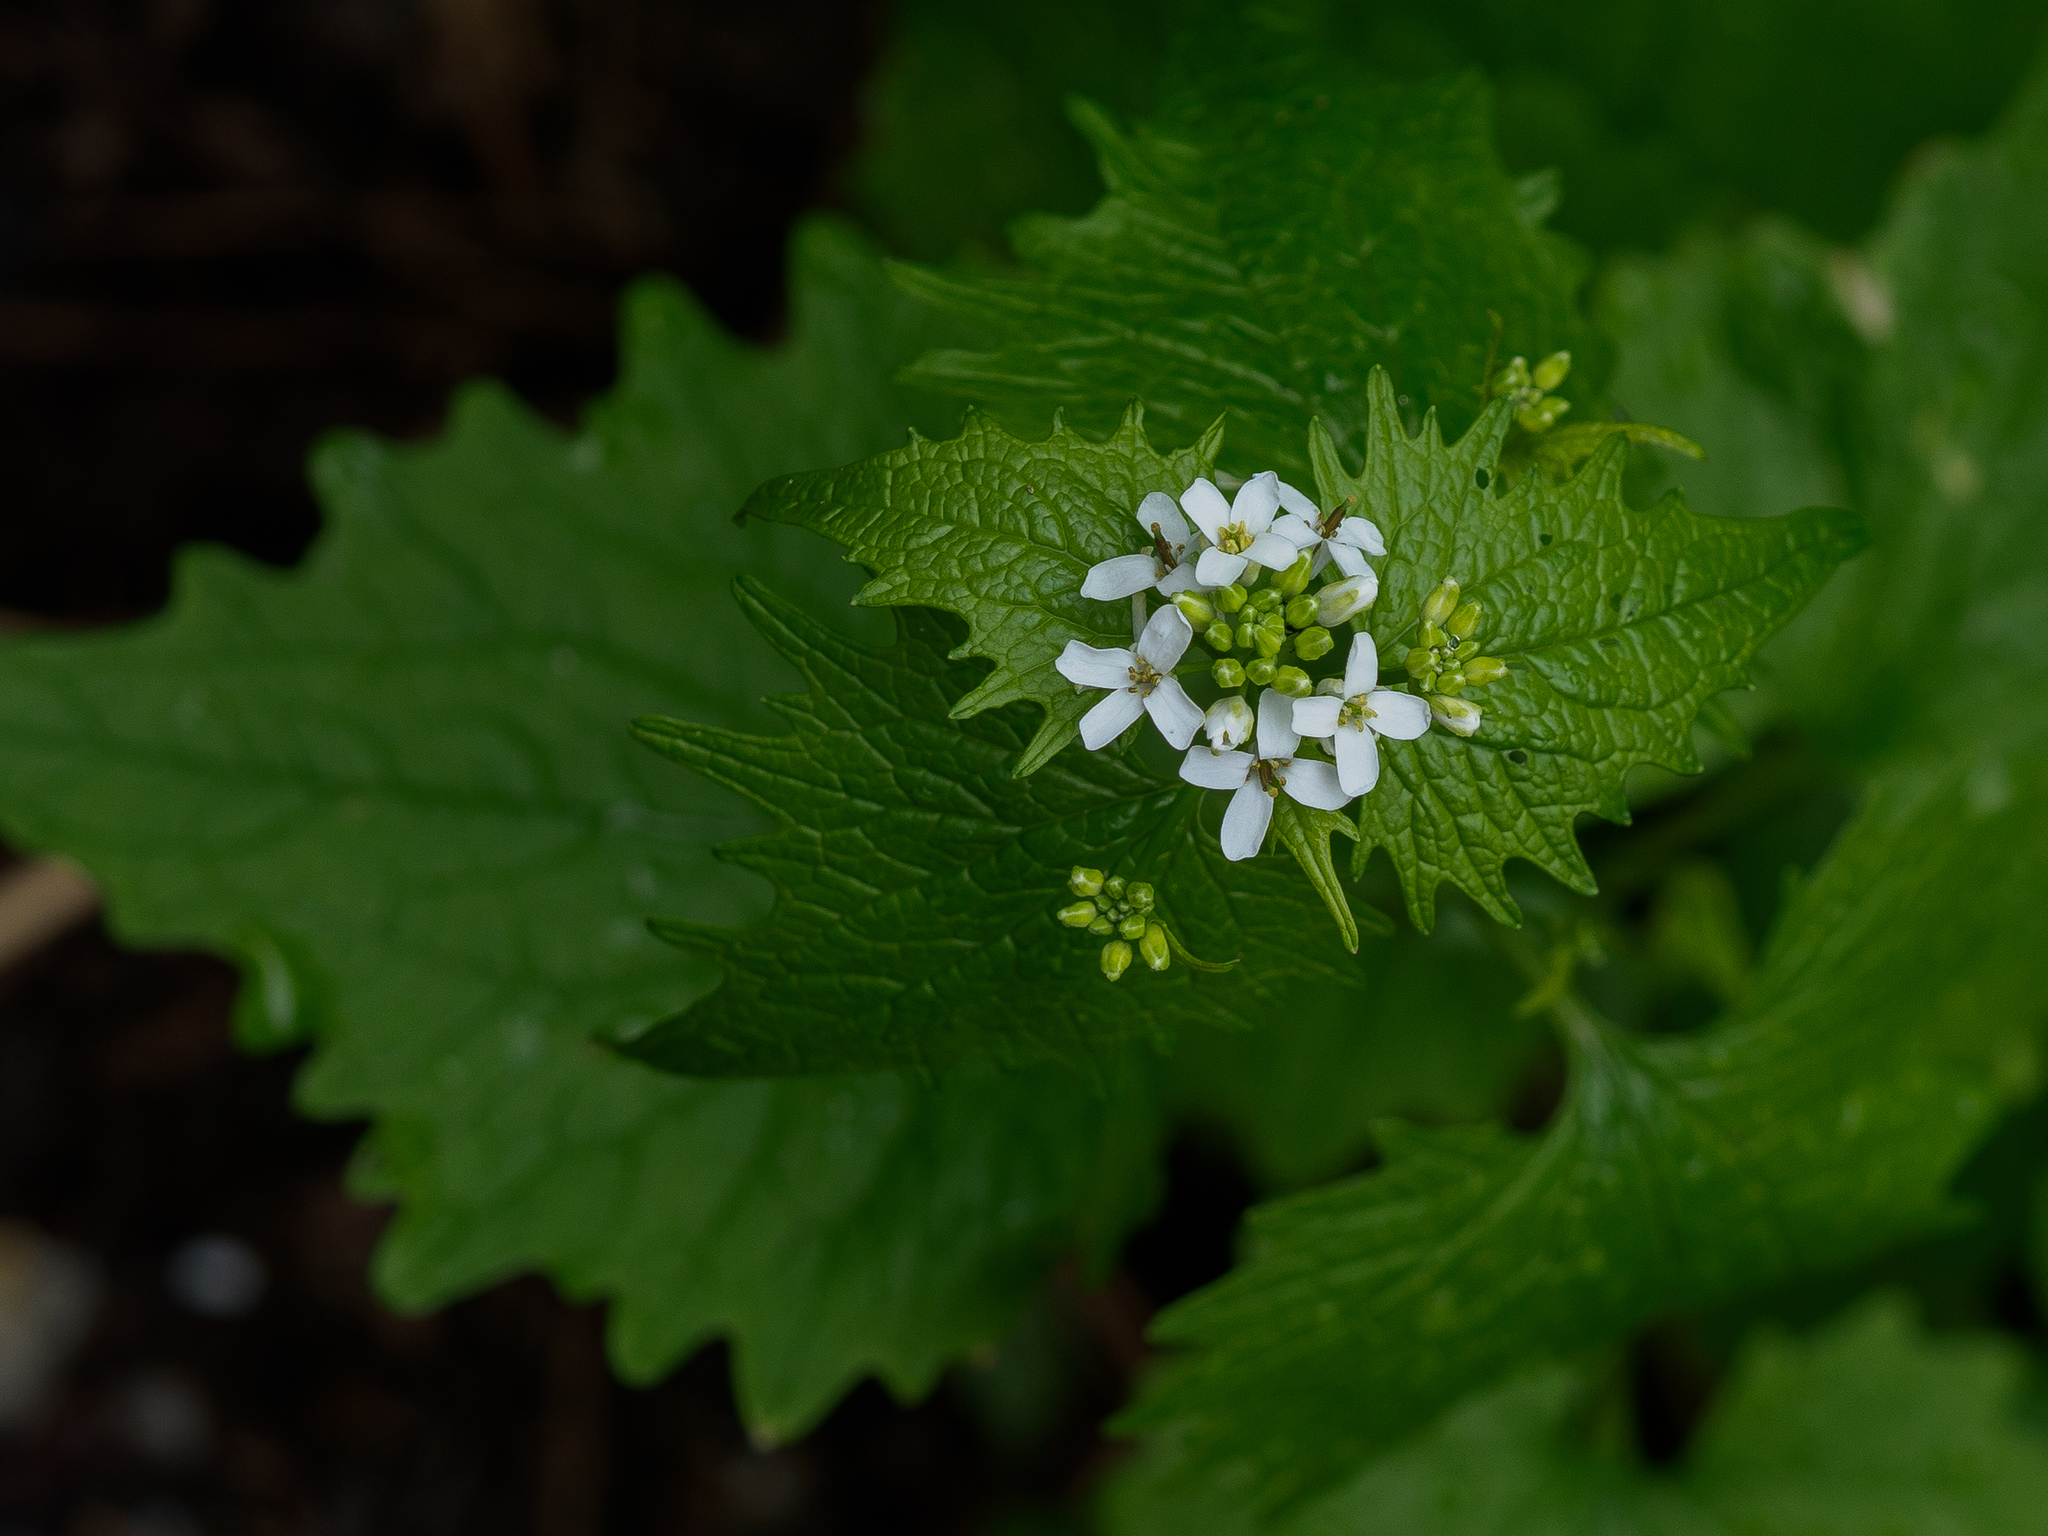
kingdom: Plantae
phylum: Tracheophyta
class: Magnoliopsida
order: Brassicales
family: Brassicaceae
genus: Alliaria
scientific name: Alliaria petiolata
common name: Garlic mustard
